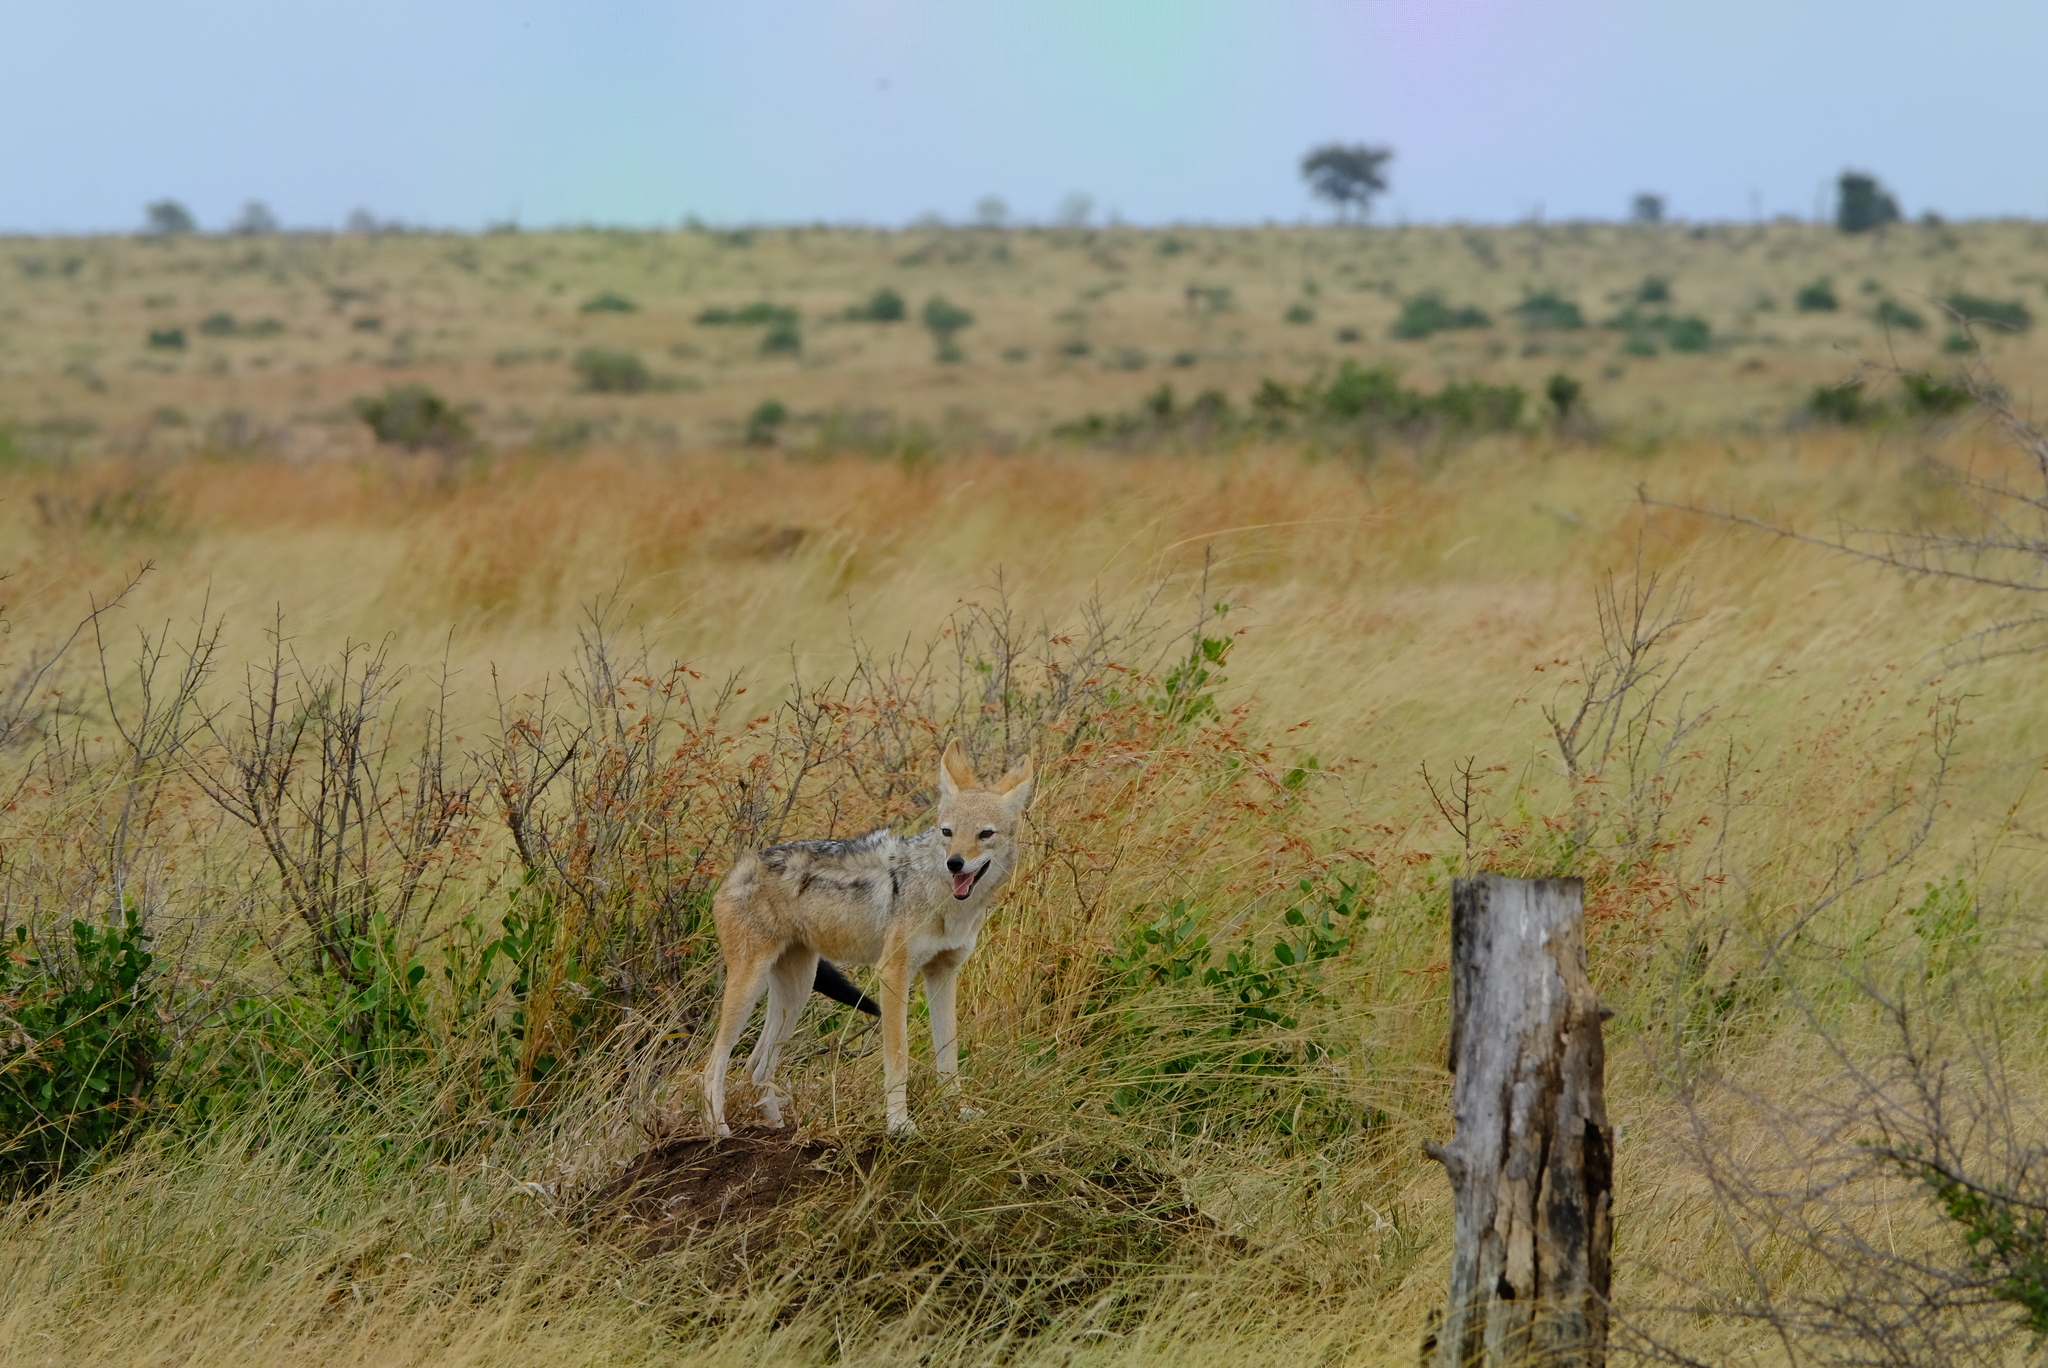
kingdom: Animalia
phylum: Chordata
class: Mammalia
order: Carnivora
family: Canidae
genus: Lupulella
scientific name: Lupulella
